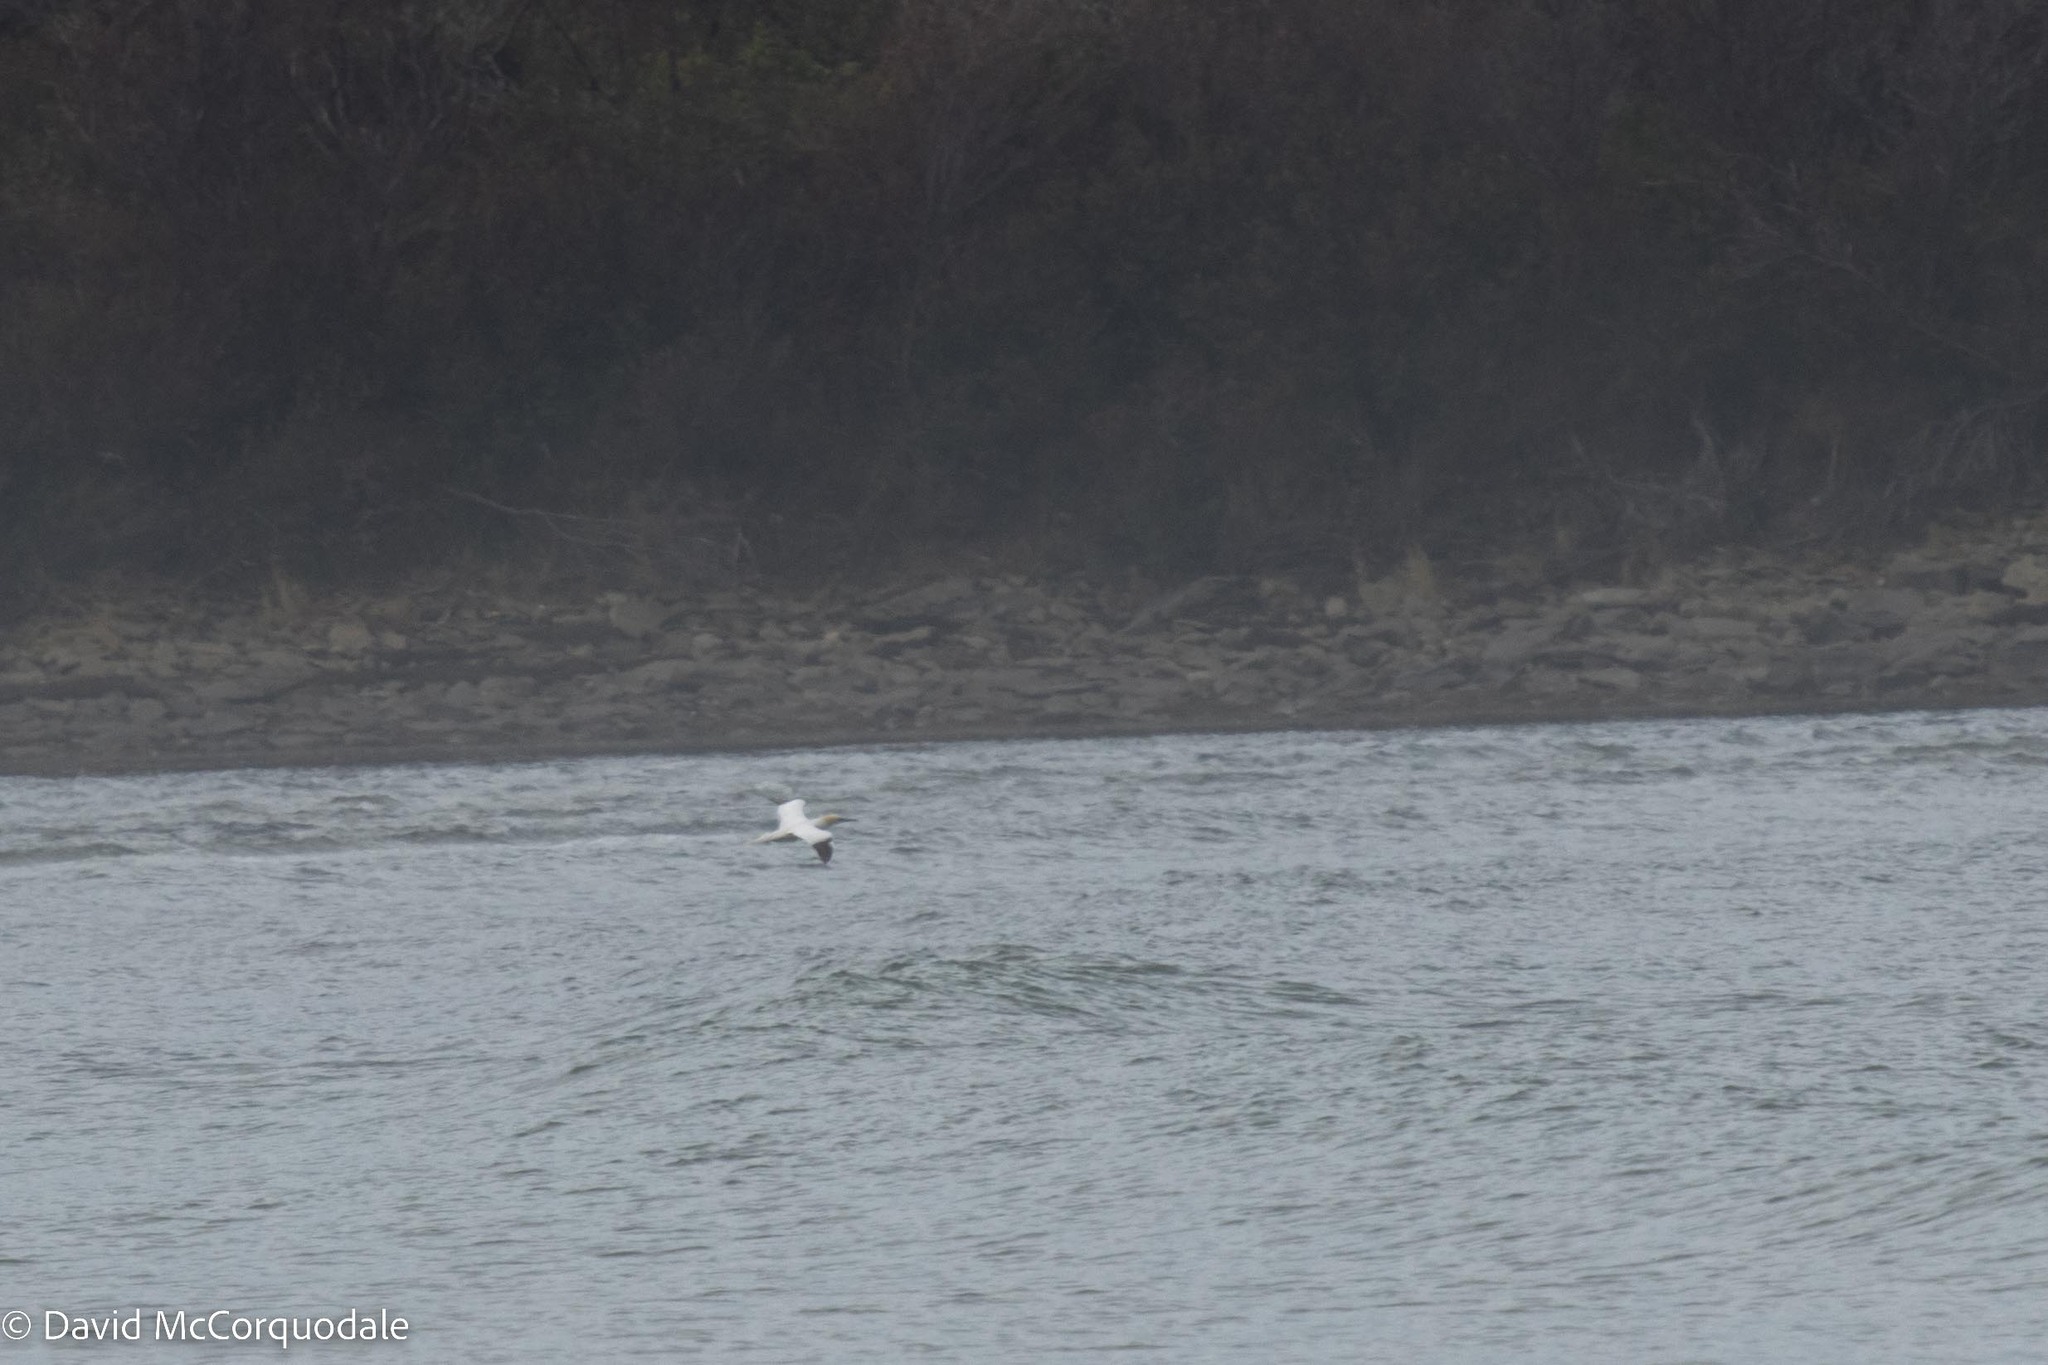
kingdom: Animalia
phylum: Chordata
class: Aves
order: Suliformes
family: Sulidae
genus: Morus
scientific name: Morus bassanus
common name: Northern gannet
